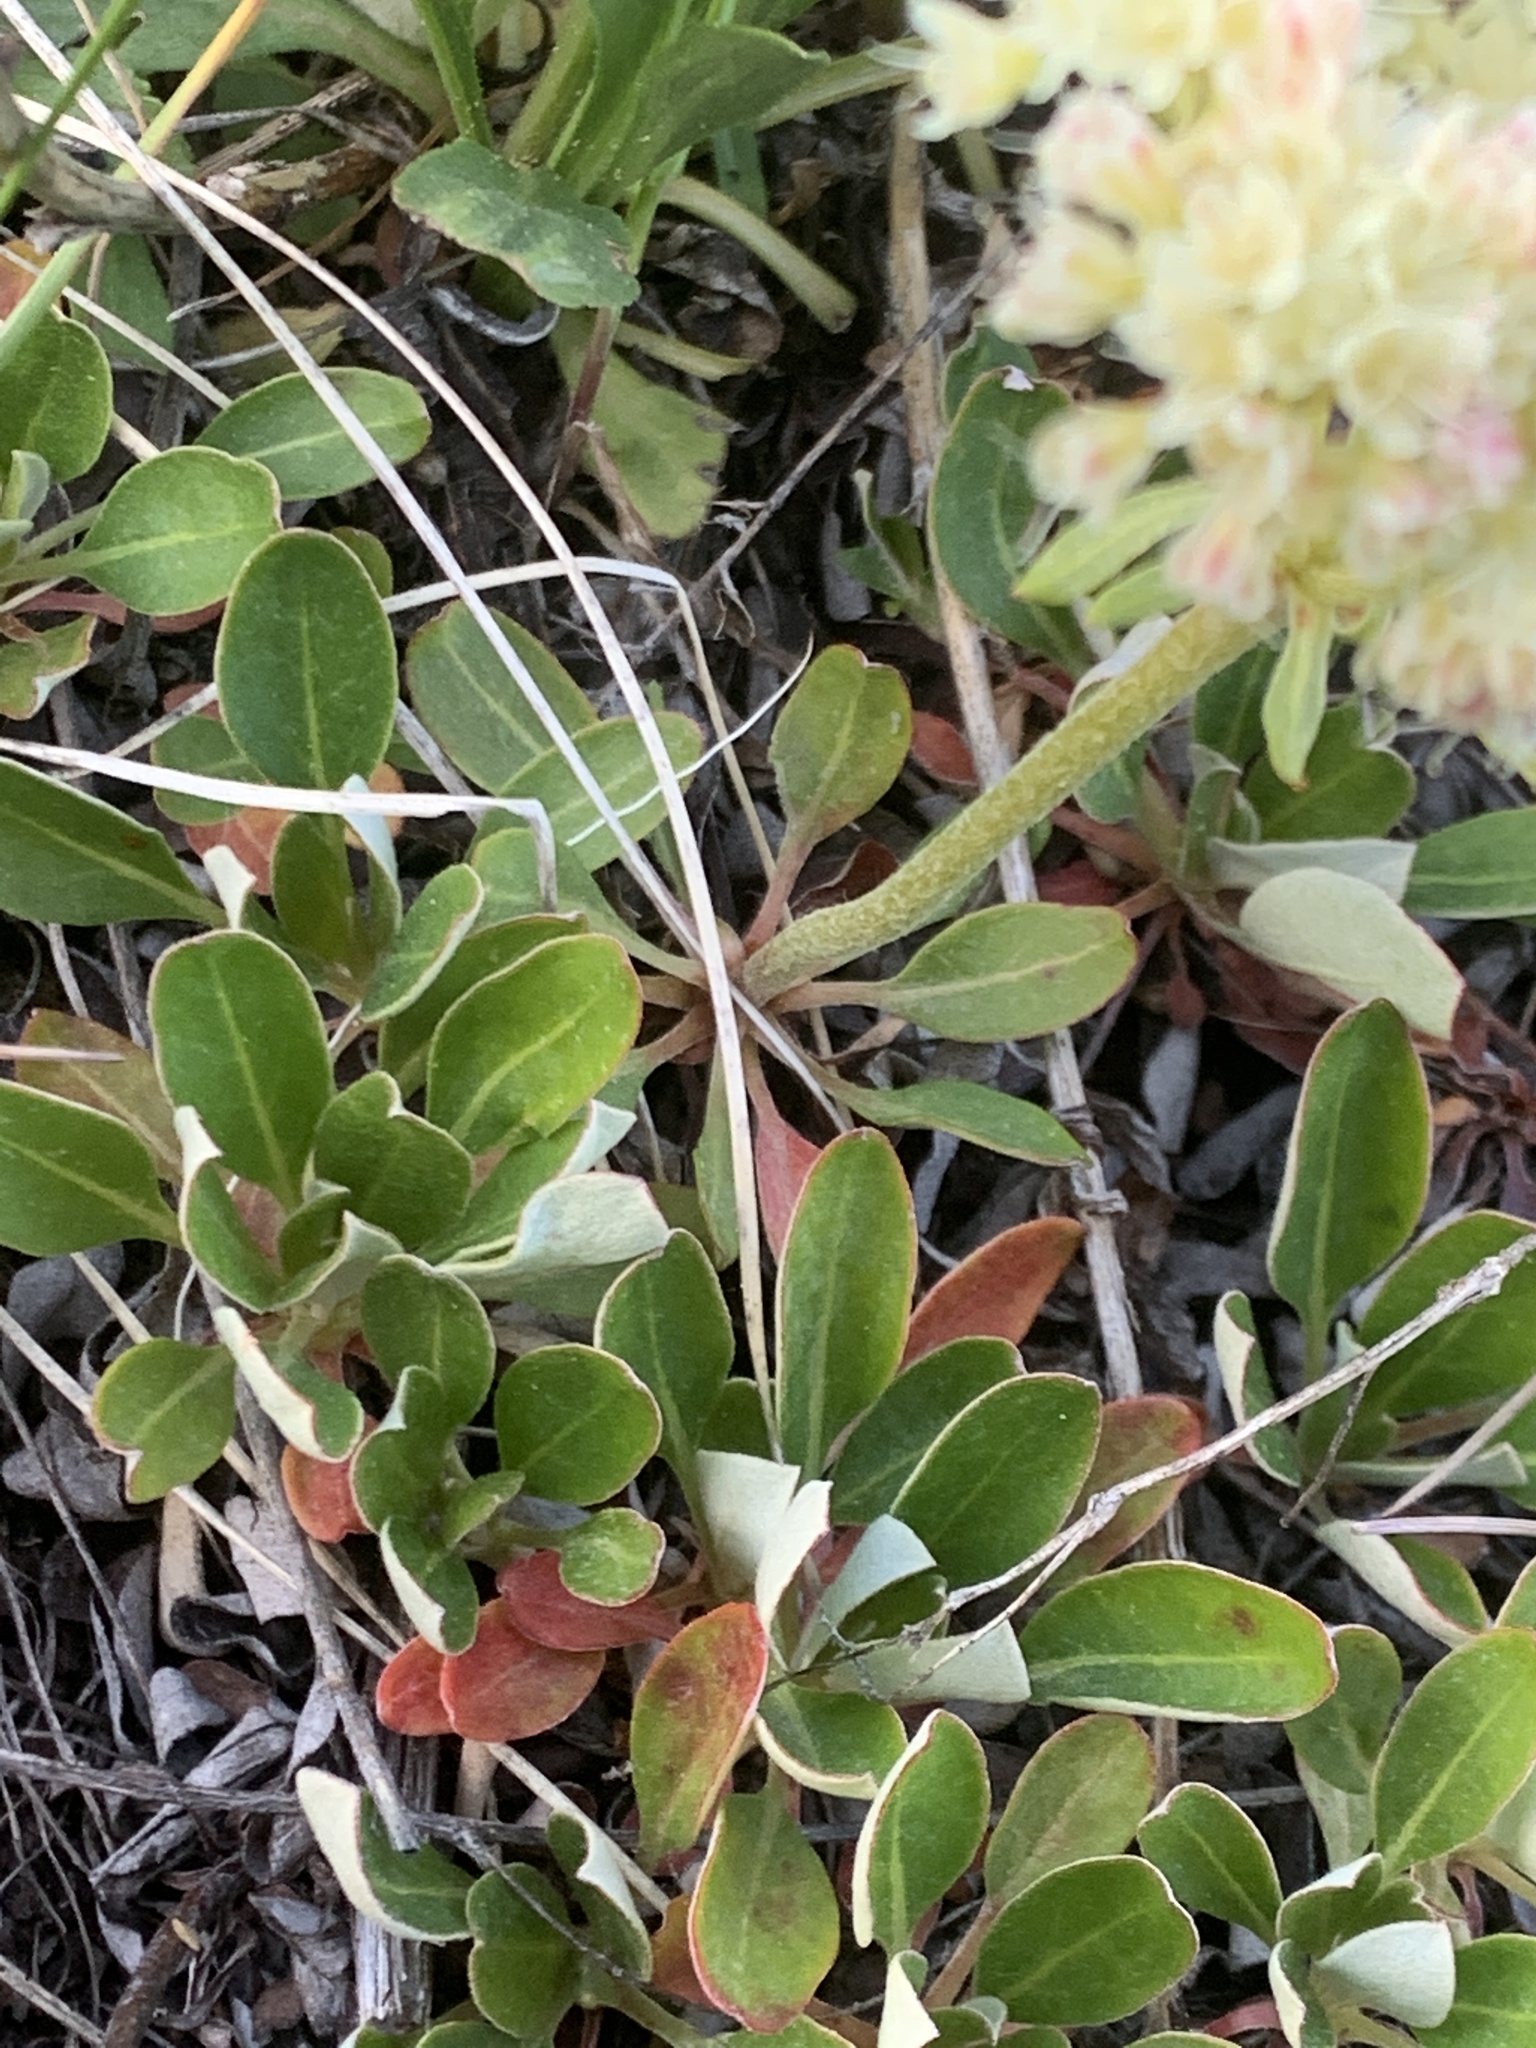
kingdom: Plantae
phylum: Tracheophyta
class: Magnoliopsida
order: Caryophyllales
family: Polygonaceae
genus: Eriogonum
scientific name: Eriogonum umbellatum
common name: Sulfur-buckwheat
